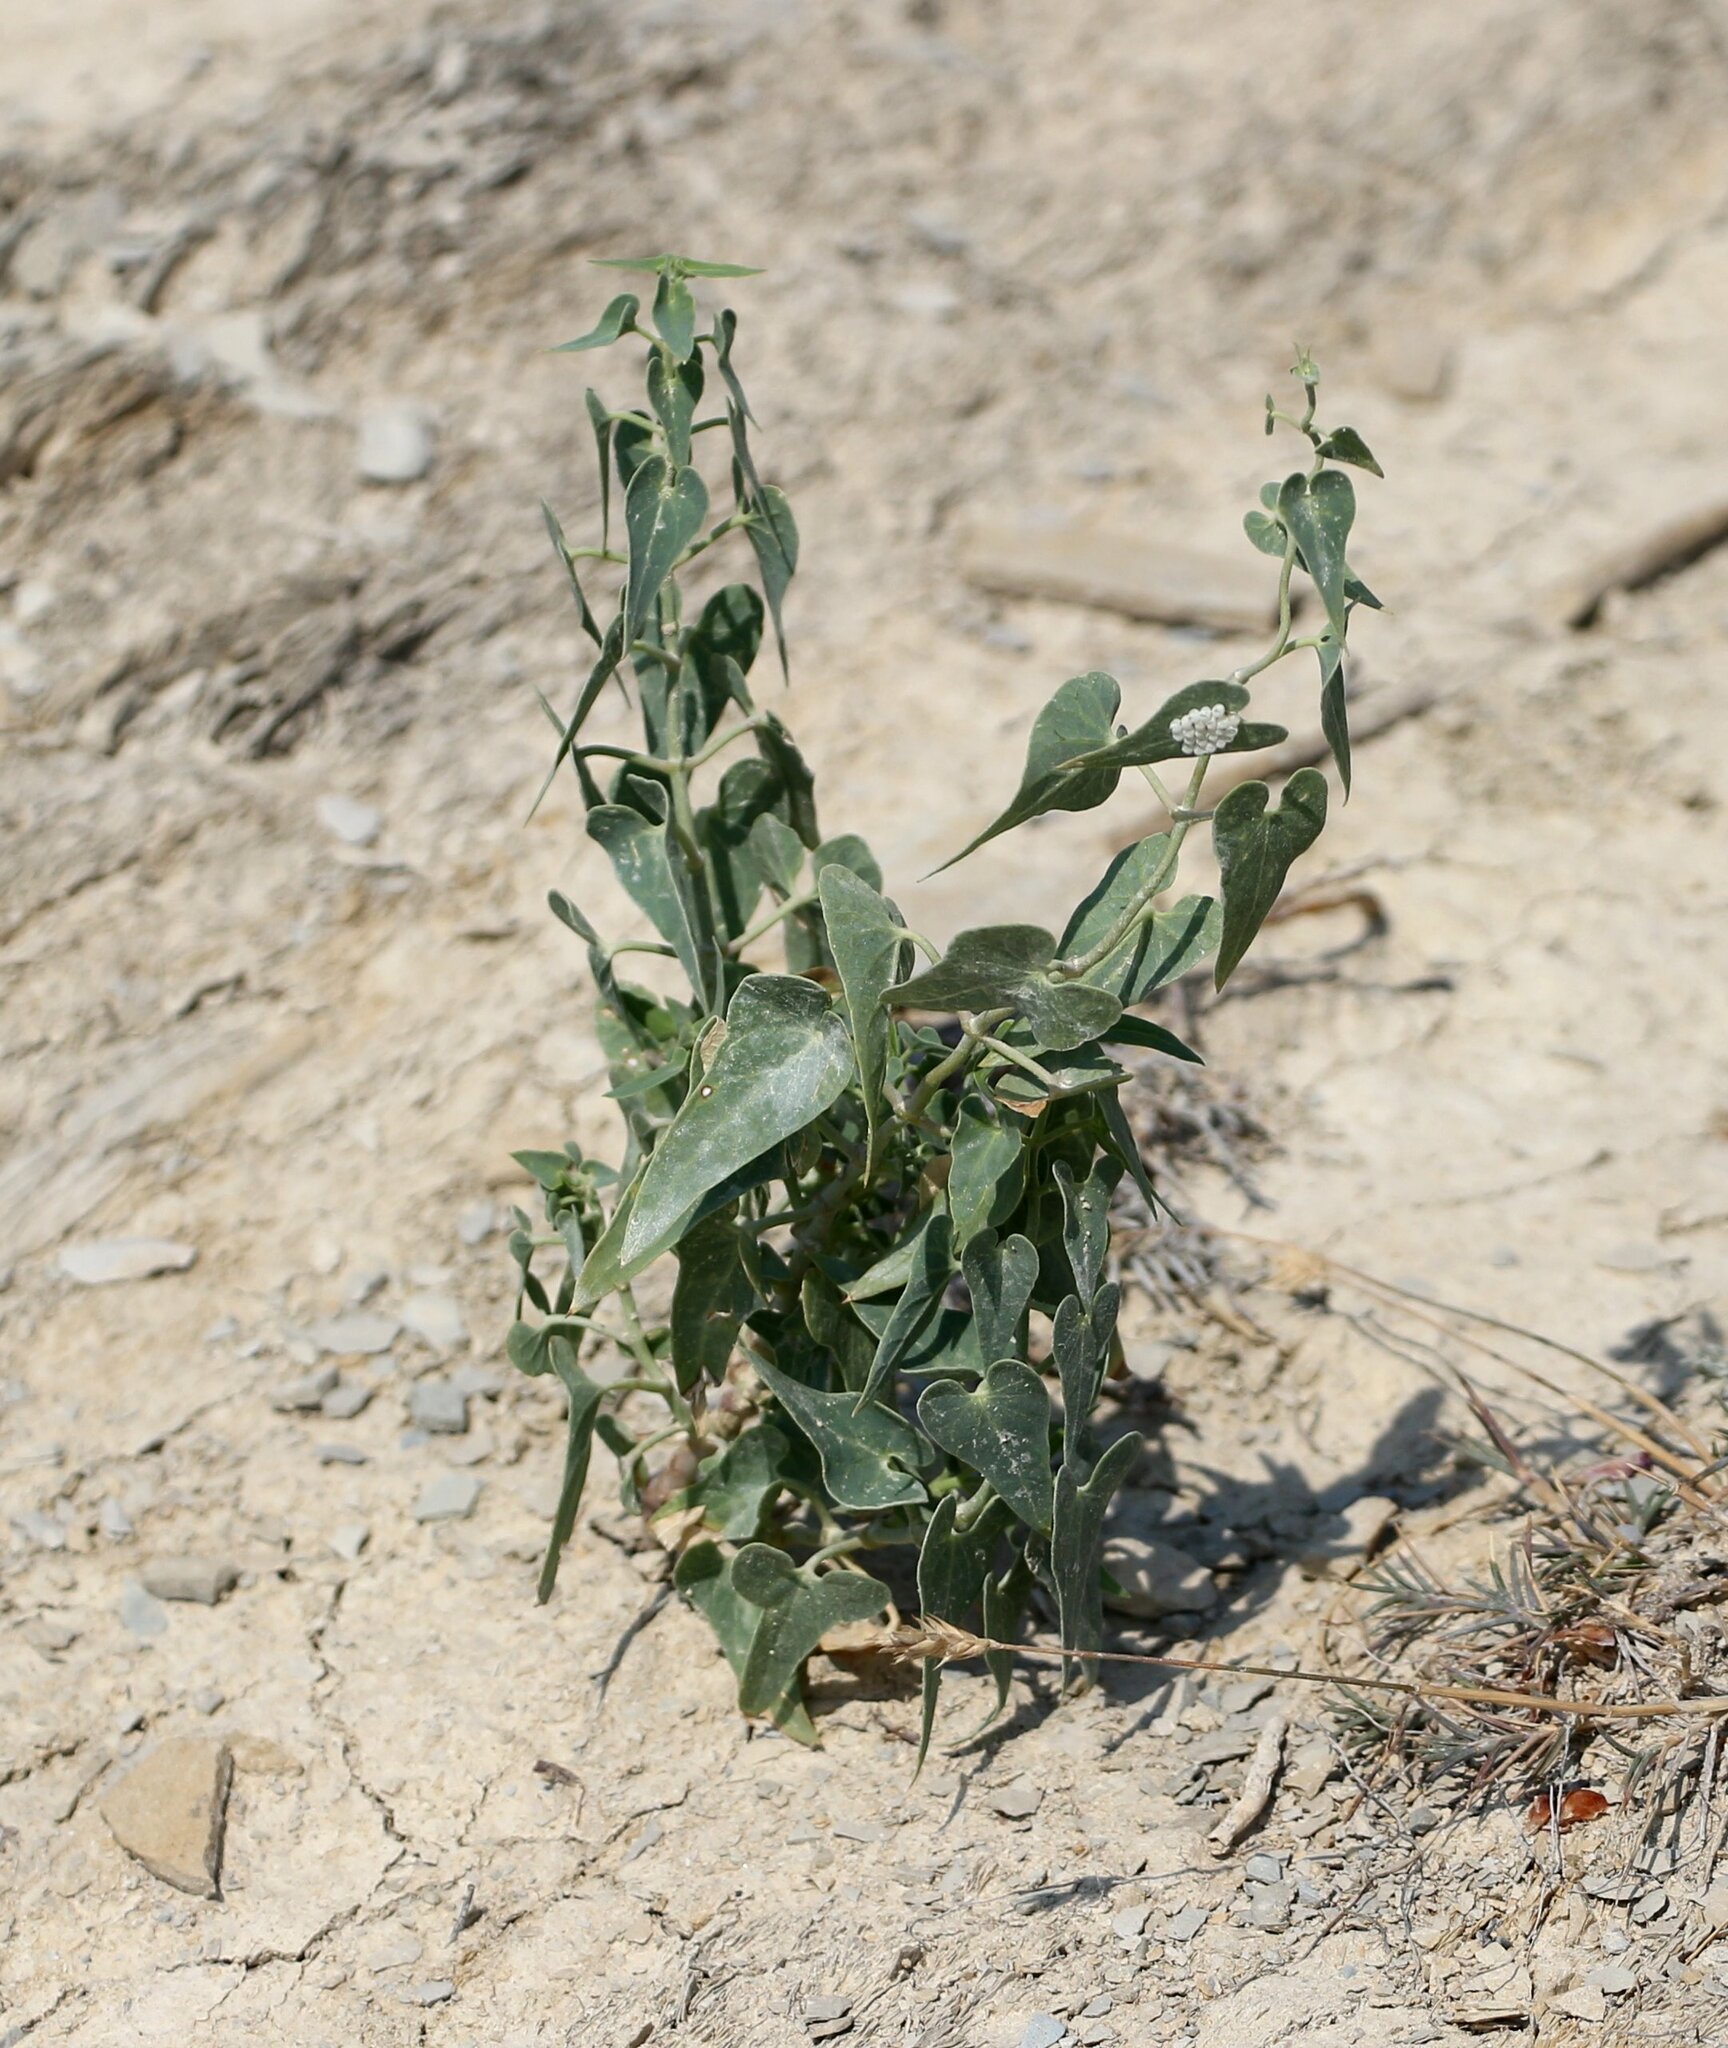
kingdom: Plantae
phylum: Tracheophyta
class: Magnoliopsida
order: Gentianales
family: Apocynaceae
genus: Cynanchum
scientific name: Cynanchum acutum
